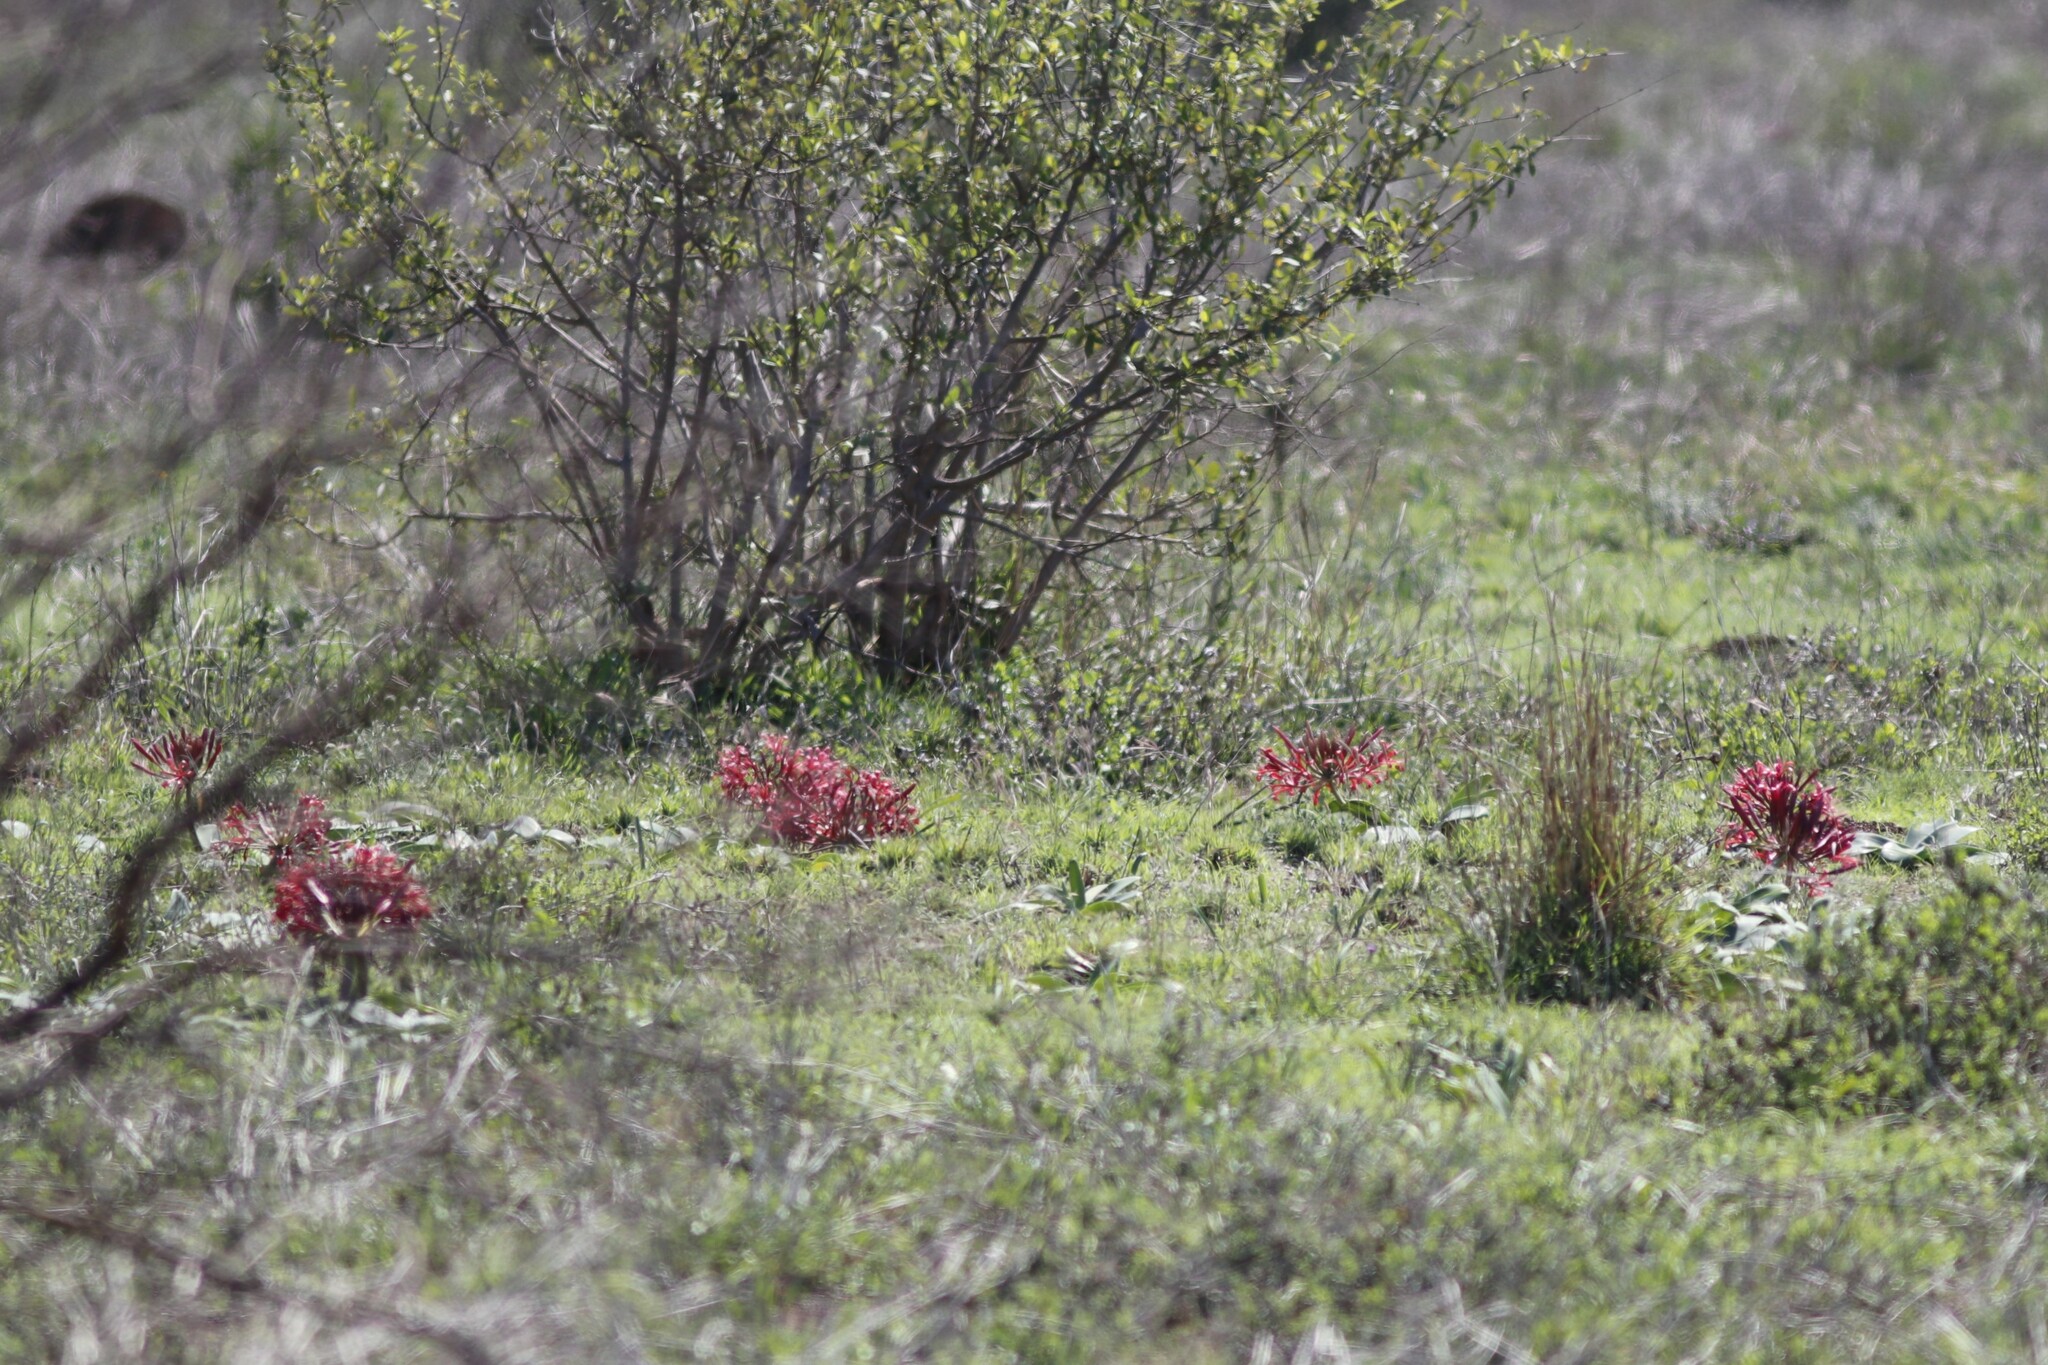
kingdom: Plantae
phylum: Tracheophyta
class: Liliopsida
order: Asparagales
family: Amaryllidaceae
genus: Ammocharis
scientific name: Ammocharis coranica
